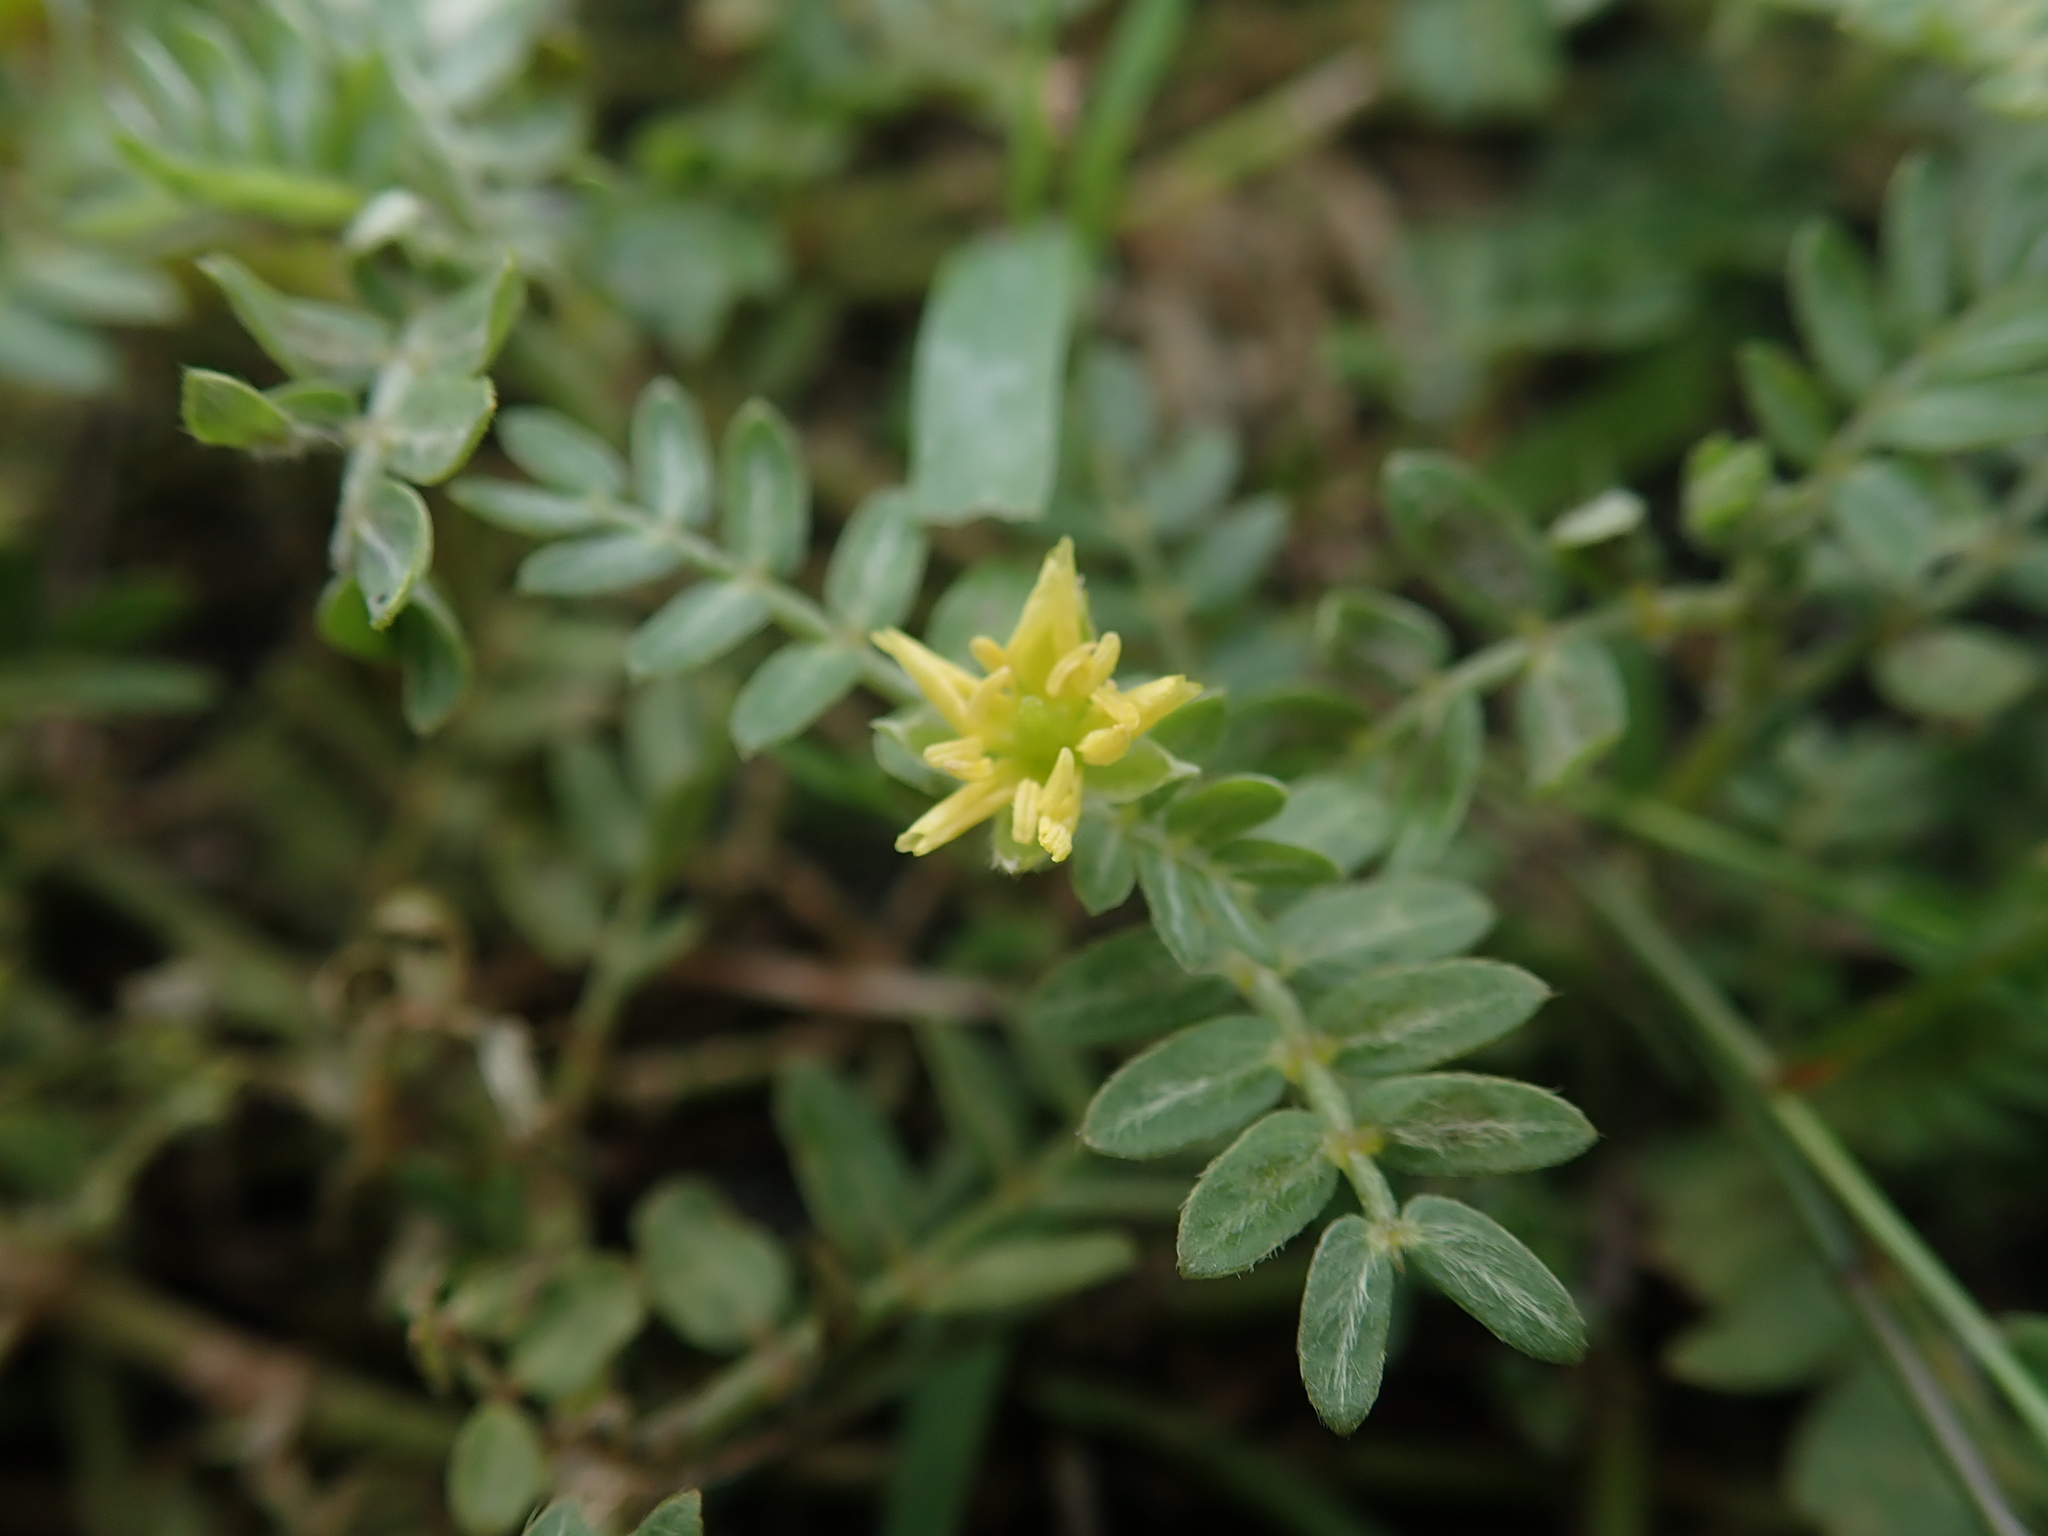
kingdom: Plantae
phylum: Tracheophyta
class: Magnoliopsida
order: Zygophyllales
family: Zygophyllaceae
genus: Tribulus
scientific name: Tribulus cistoides
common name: Jamaican feverplant
